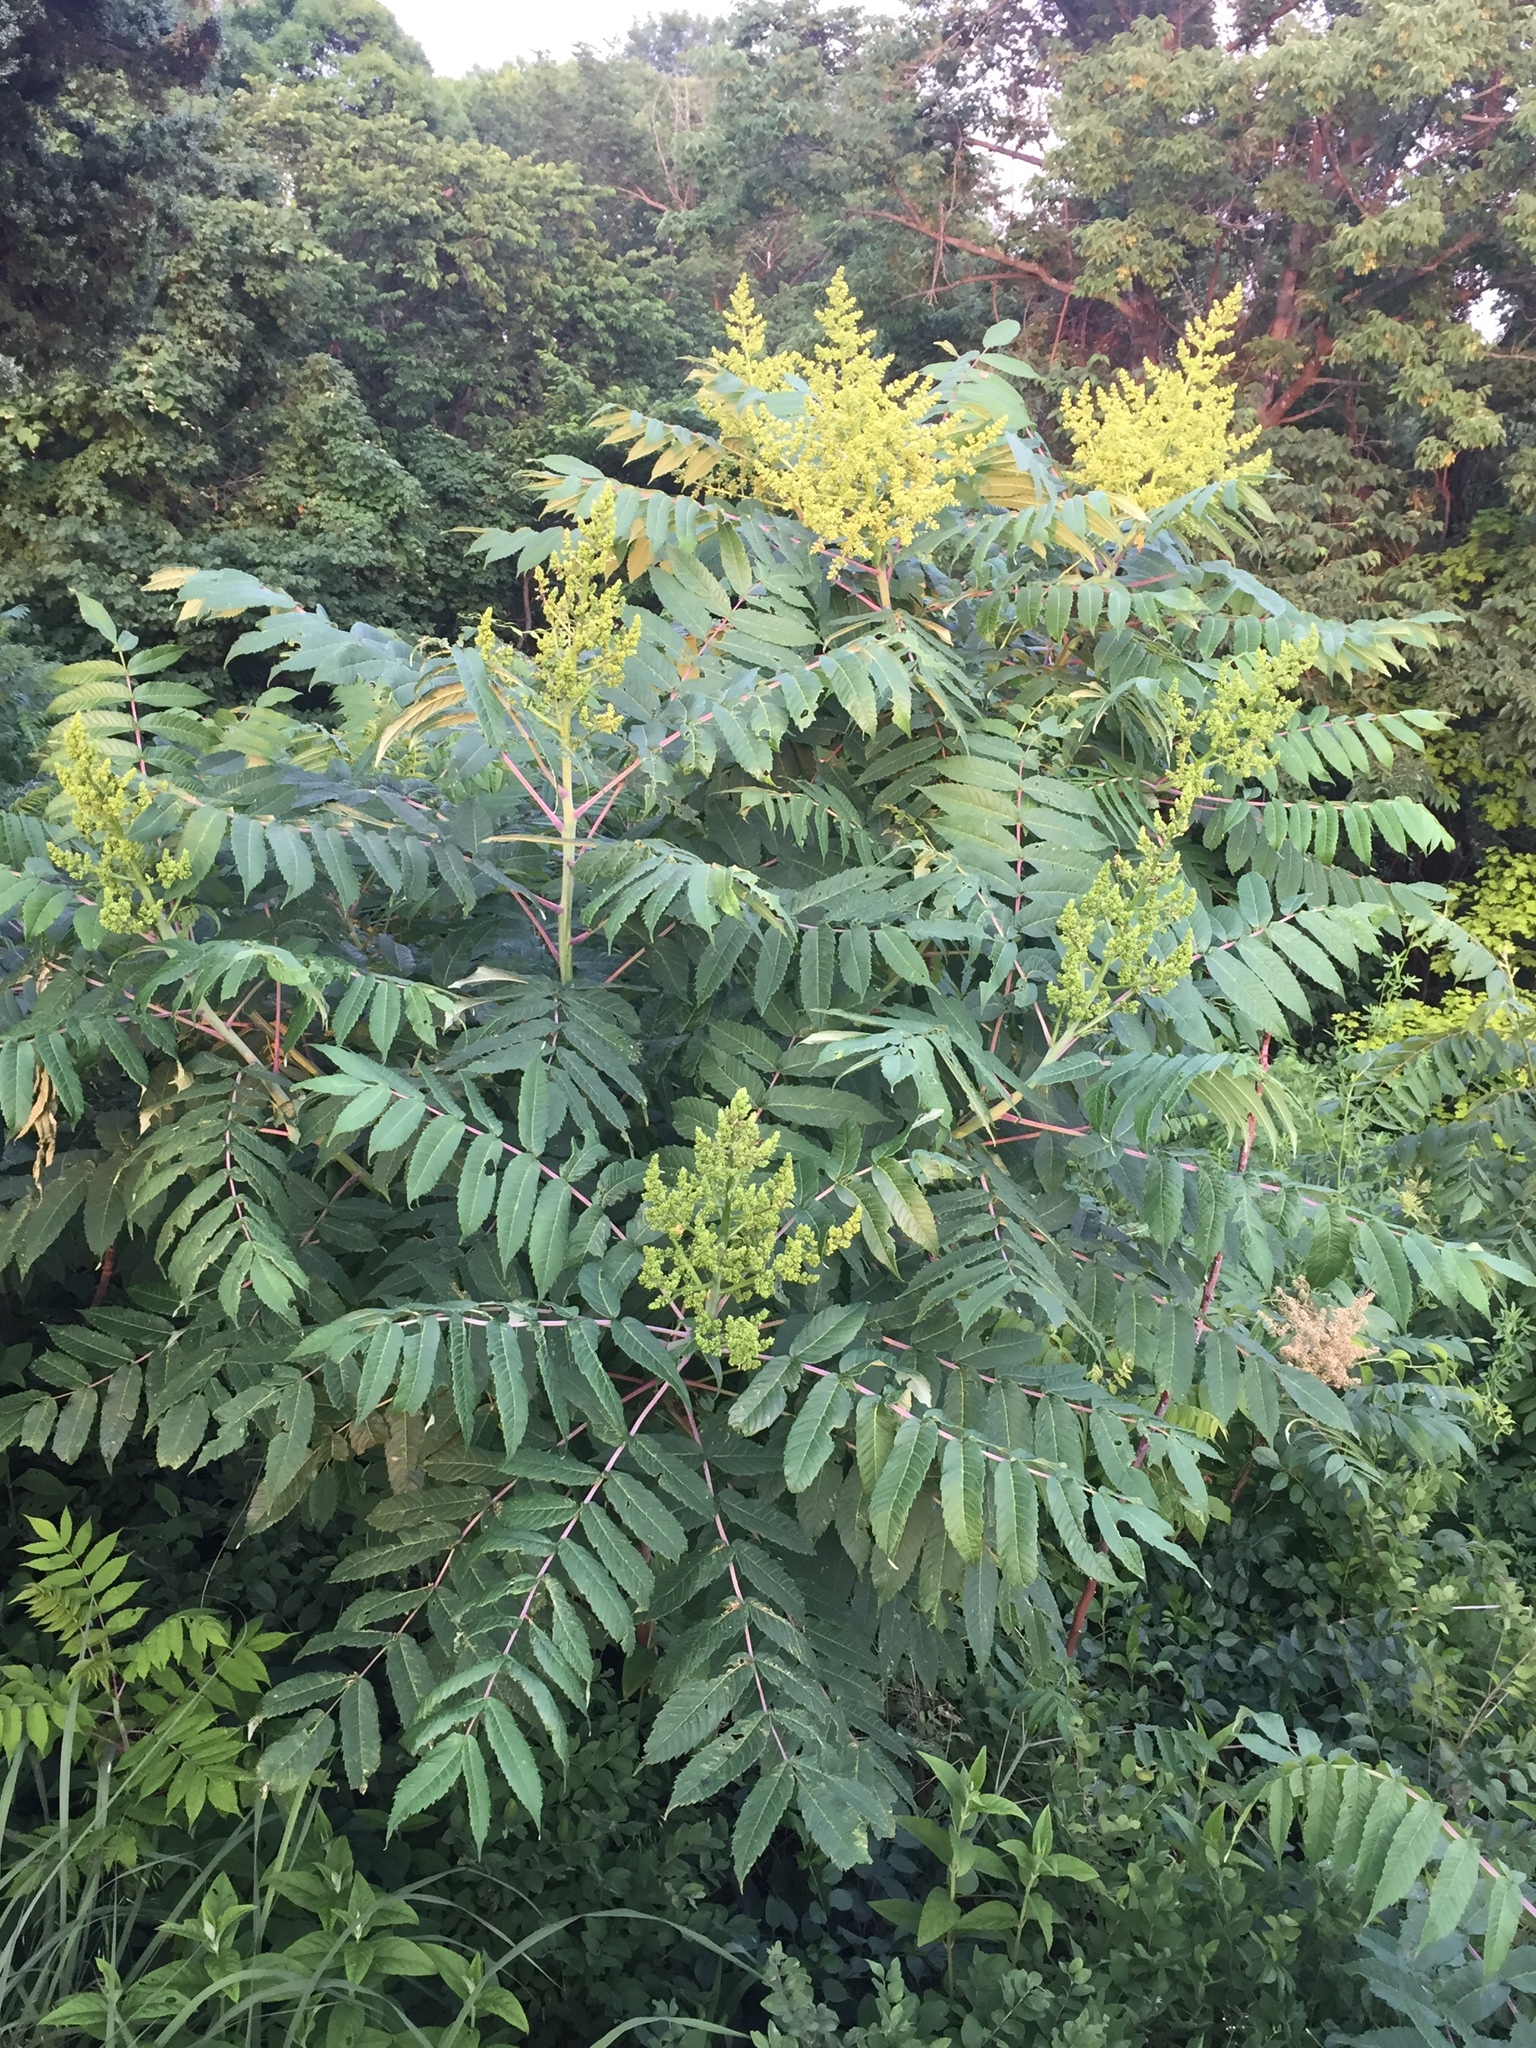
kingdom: Plantae
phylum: Tracheophyta
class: Magnoliopsida
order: Sapindales
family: Anacardiaceae
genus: Rhus
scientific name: Rhus glabra
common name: Scarlet sumac
